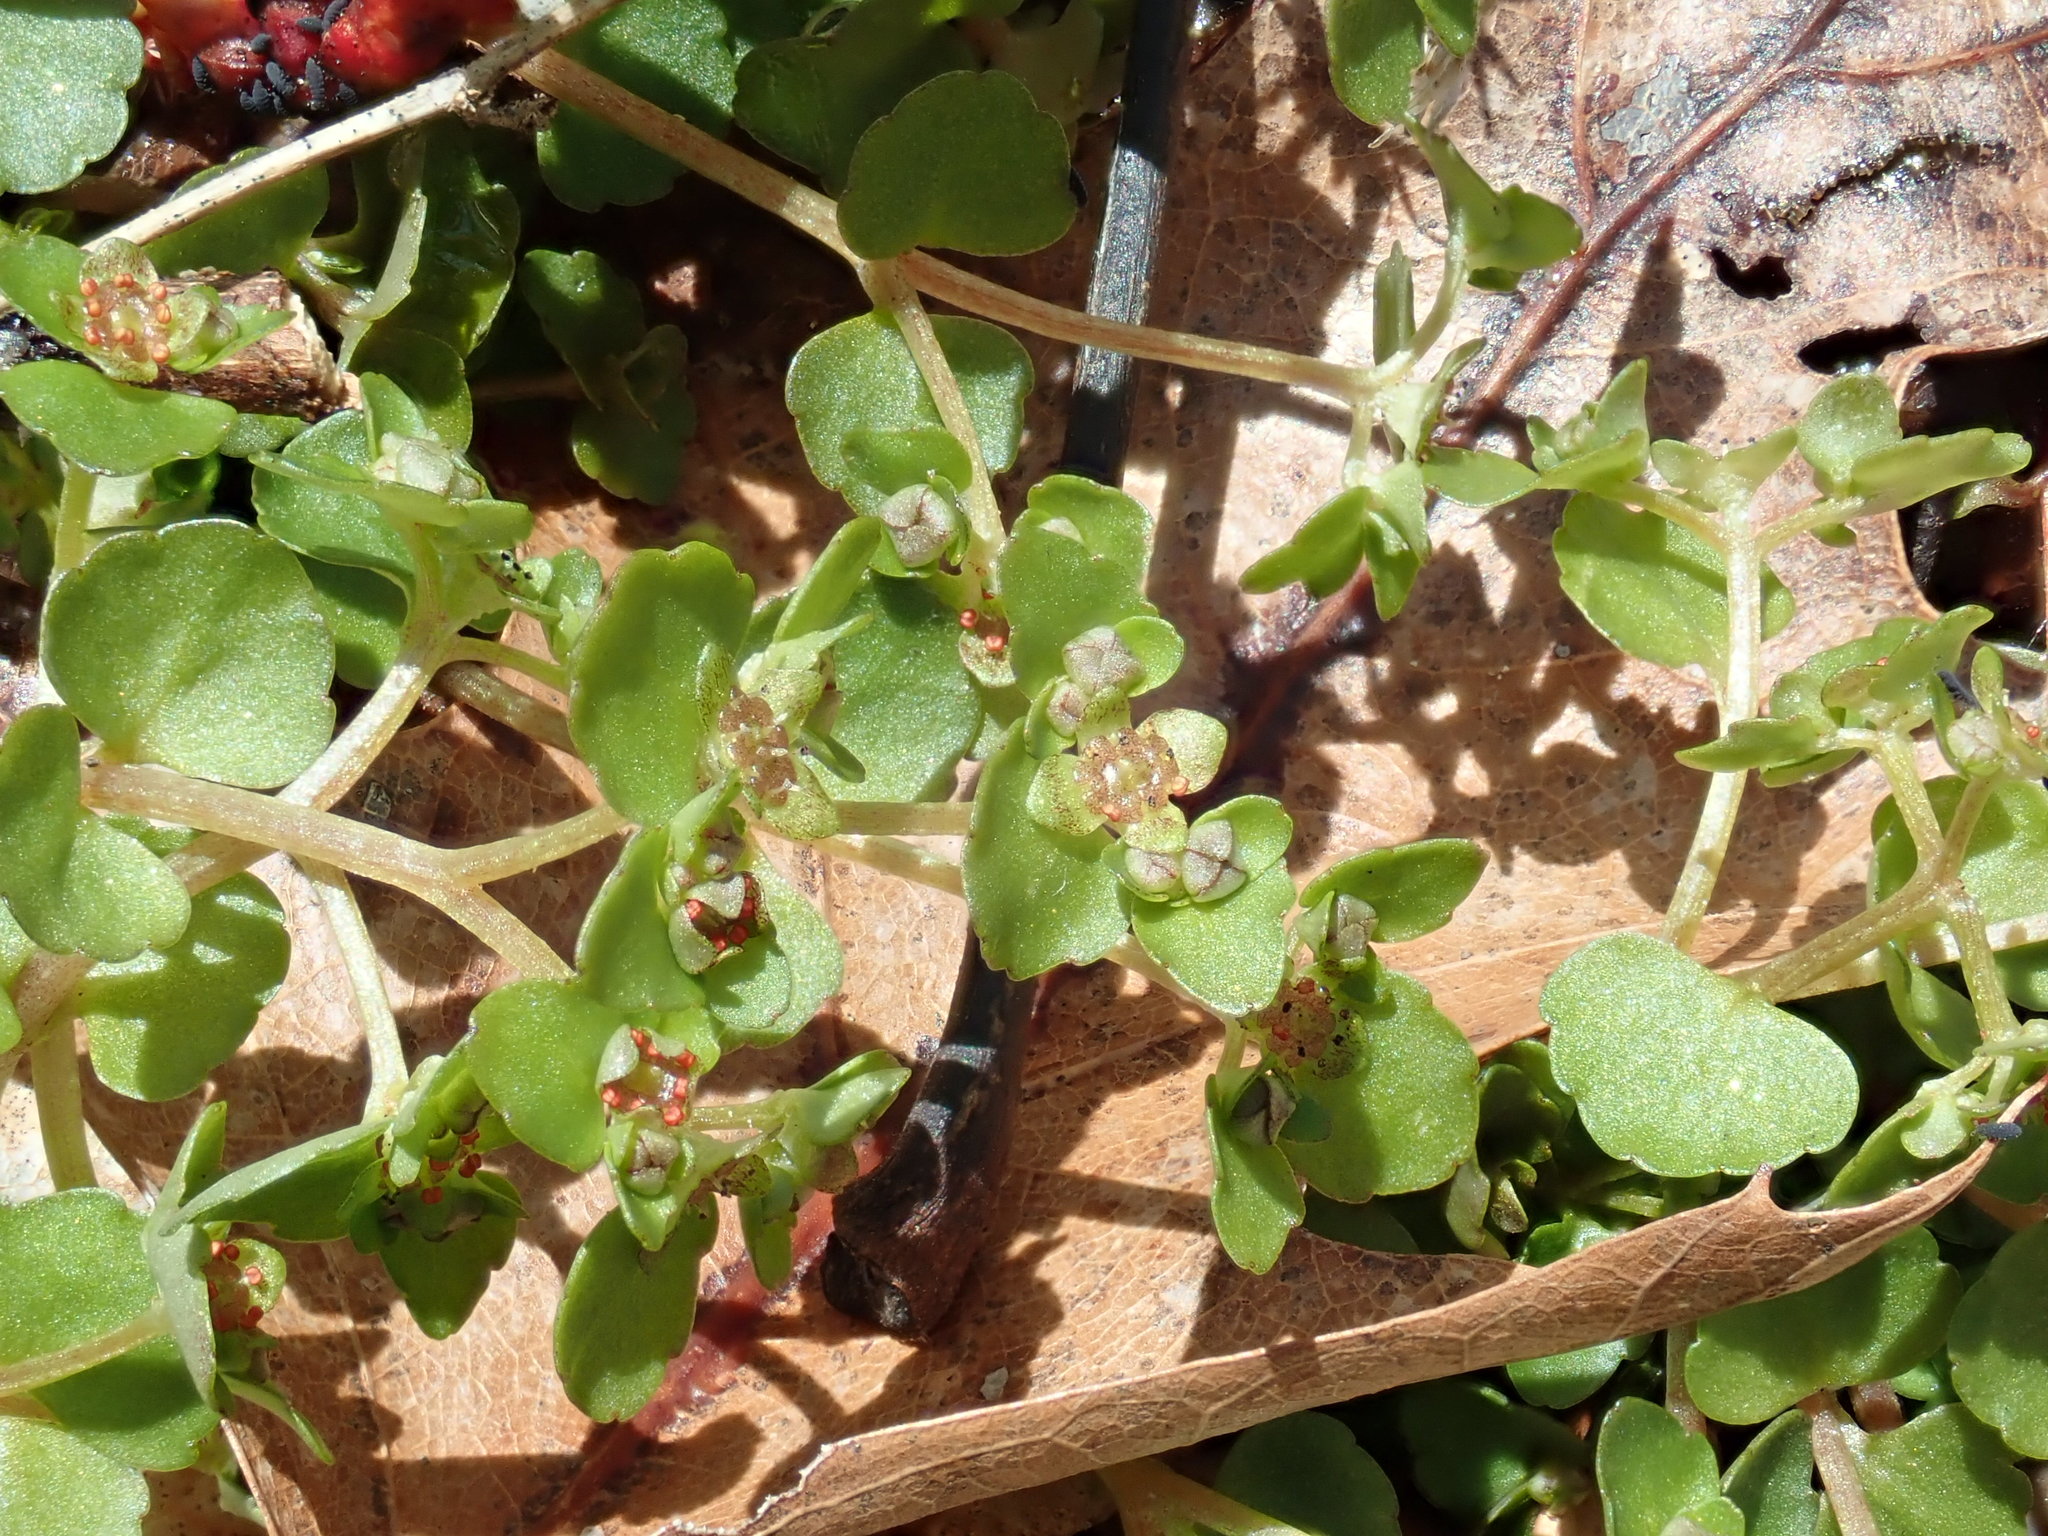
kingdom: Plantae
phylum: Tracheophyta
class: Magnoliopsida
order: Saxifragales
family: Saxifragaceae
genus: Chrysosplenium
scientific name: Chrysosplenium americanum
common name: American golden-saxifrage
